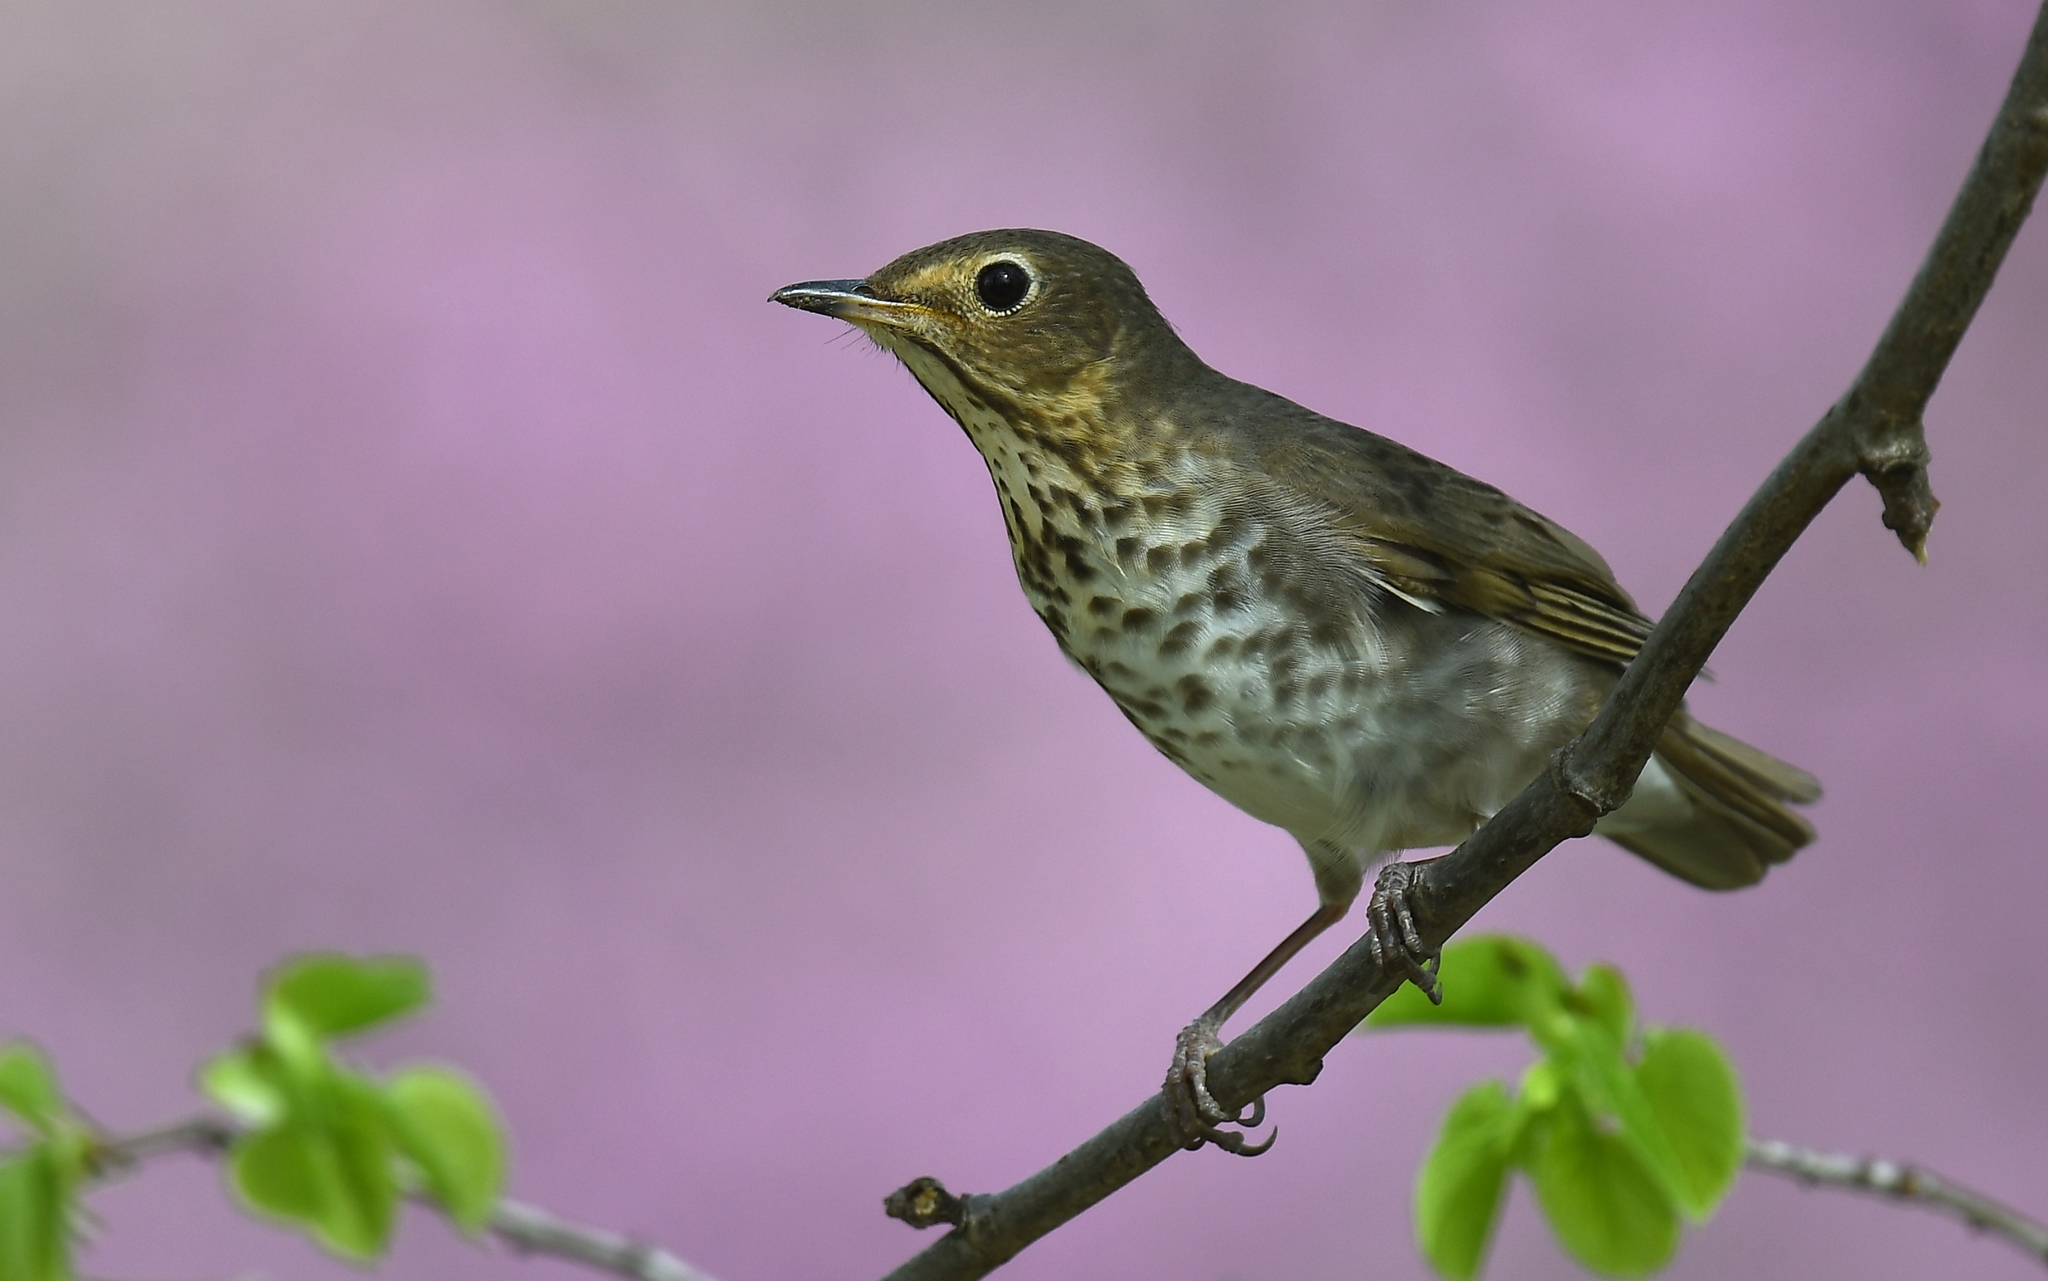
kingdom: Animalia
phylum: Chordata
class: Aves
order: Passeriformes
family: Turdidae
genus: Catharus
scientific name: Catharus ustulatus
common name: Swainson's thrush
